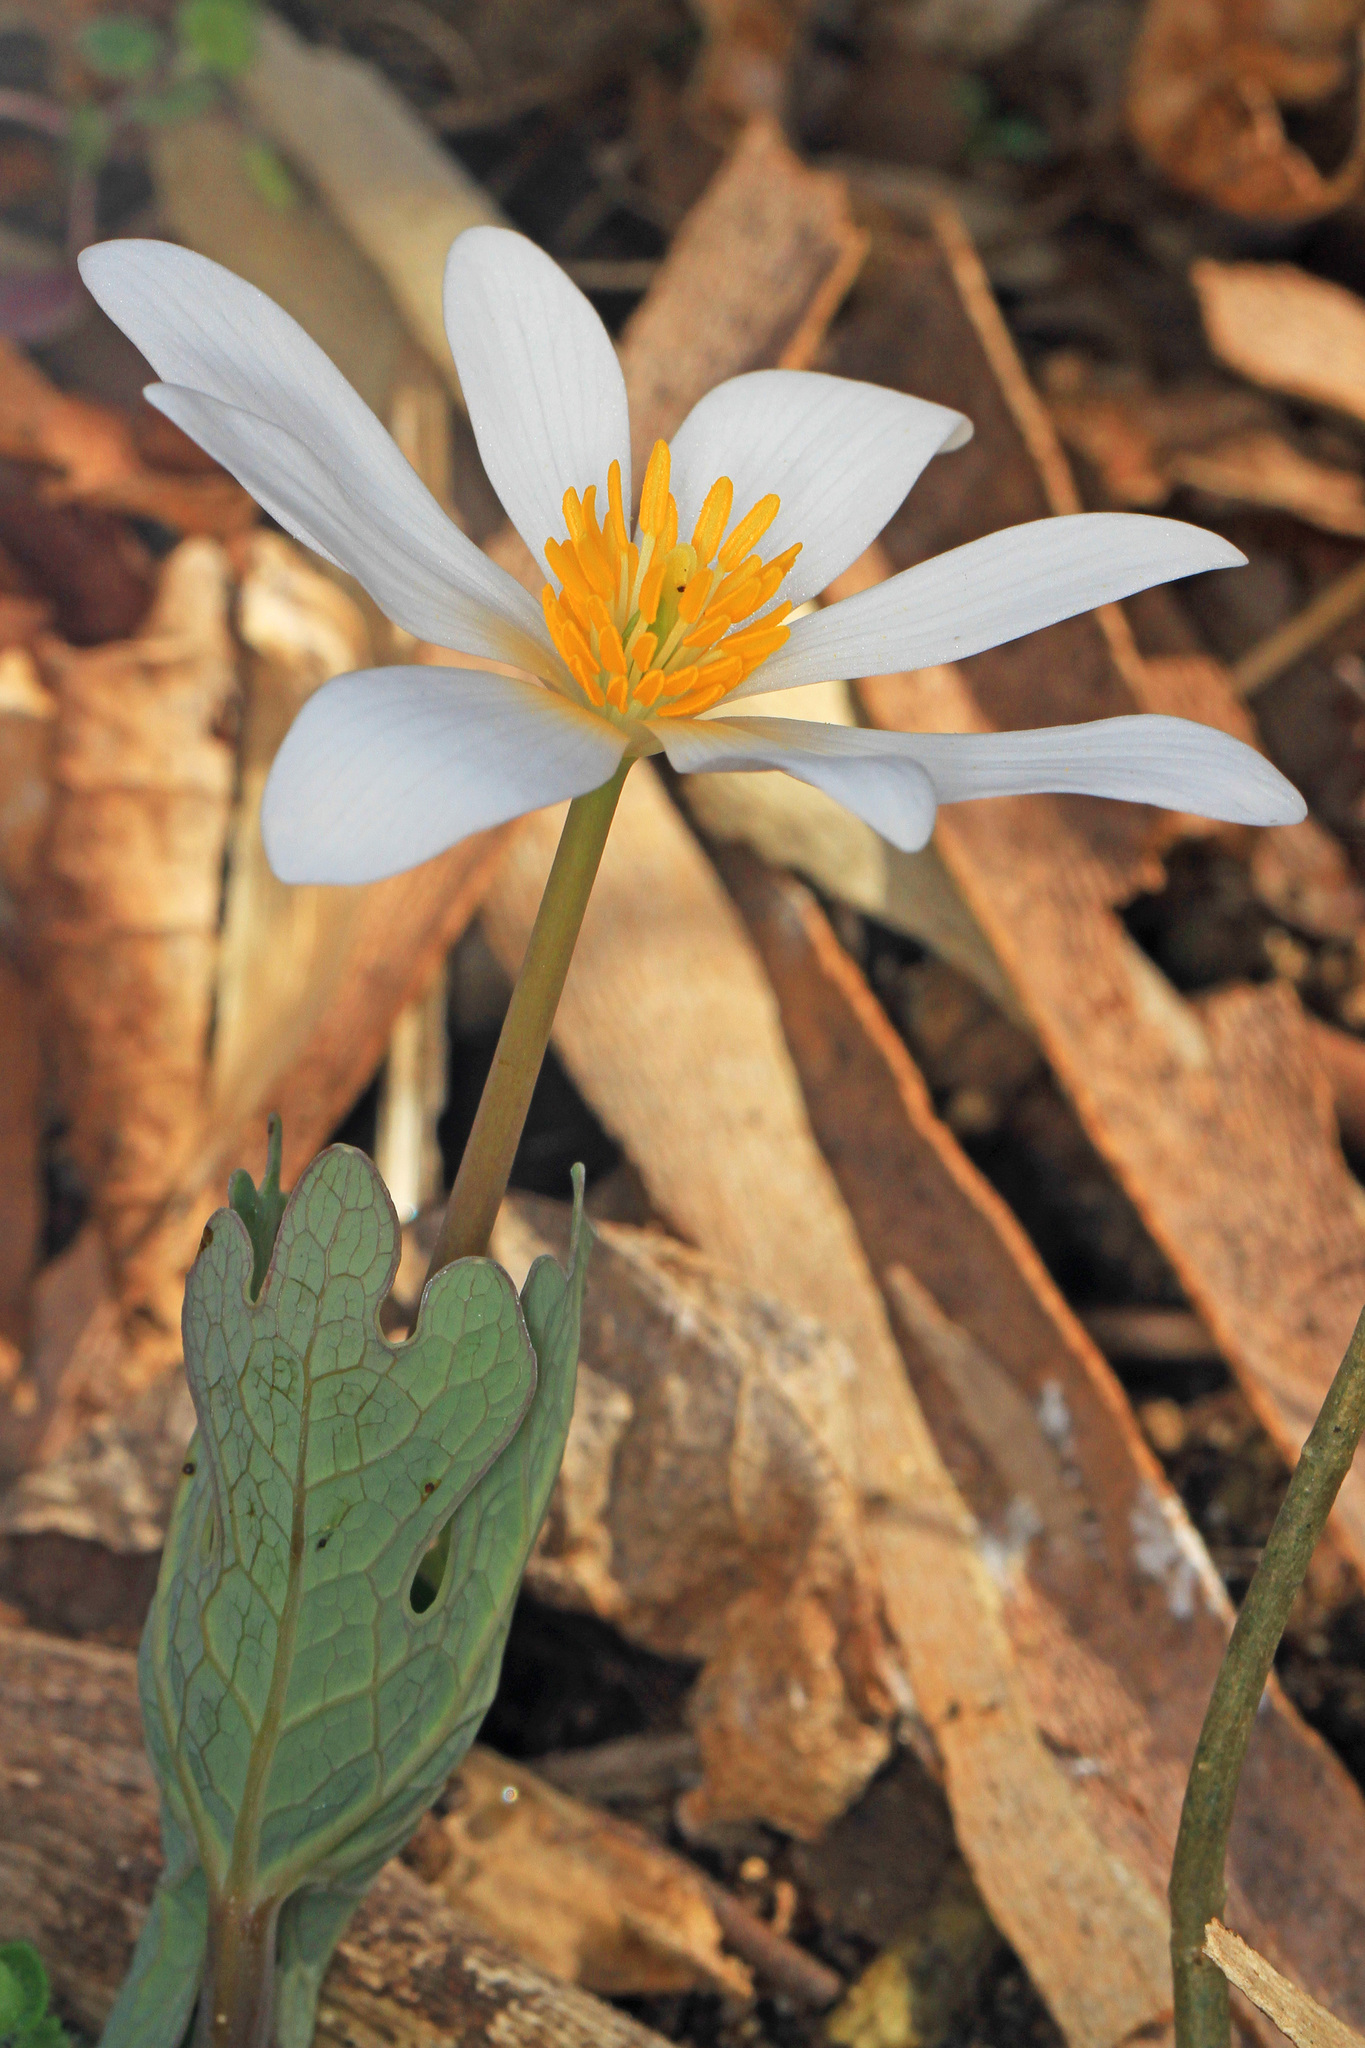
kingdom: Plantae
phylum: Tracheophyta
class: Magnoliopsida
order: Ranunculales
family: Papaveraceae
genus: Sanguinaria
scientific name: Sanguinaria canadensis
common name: Bloodroot
